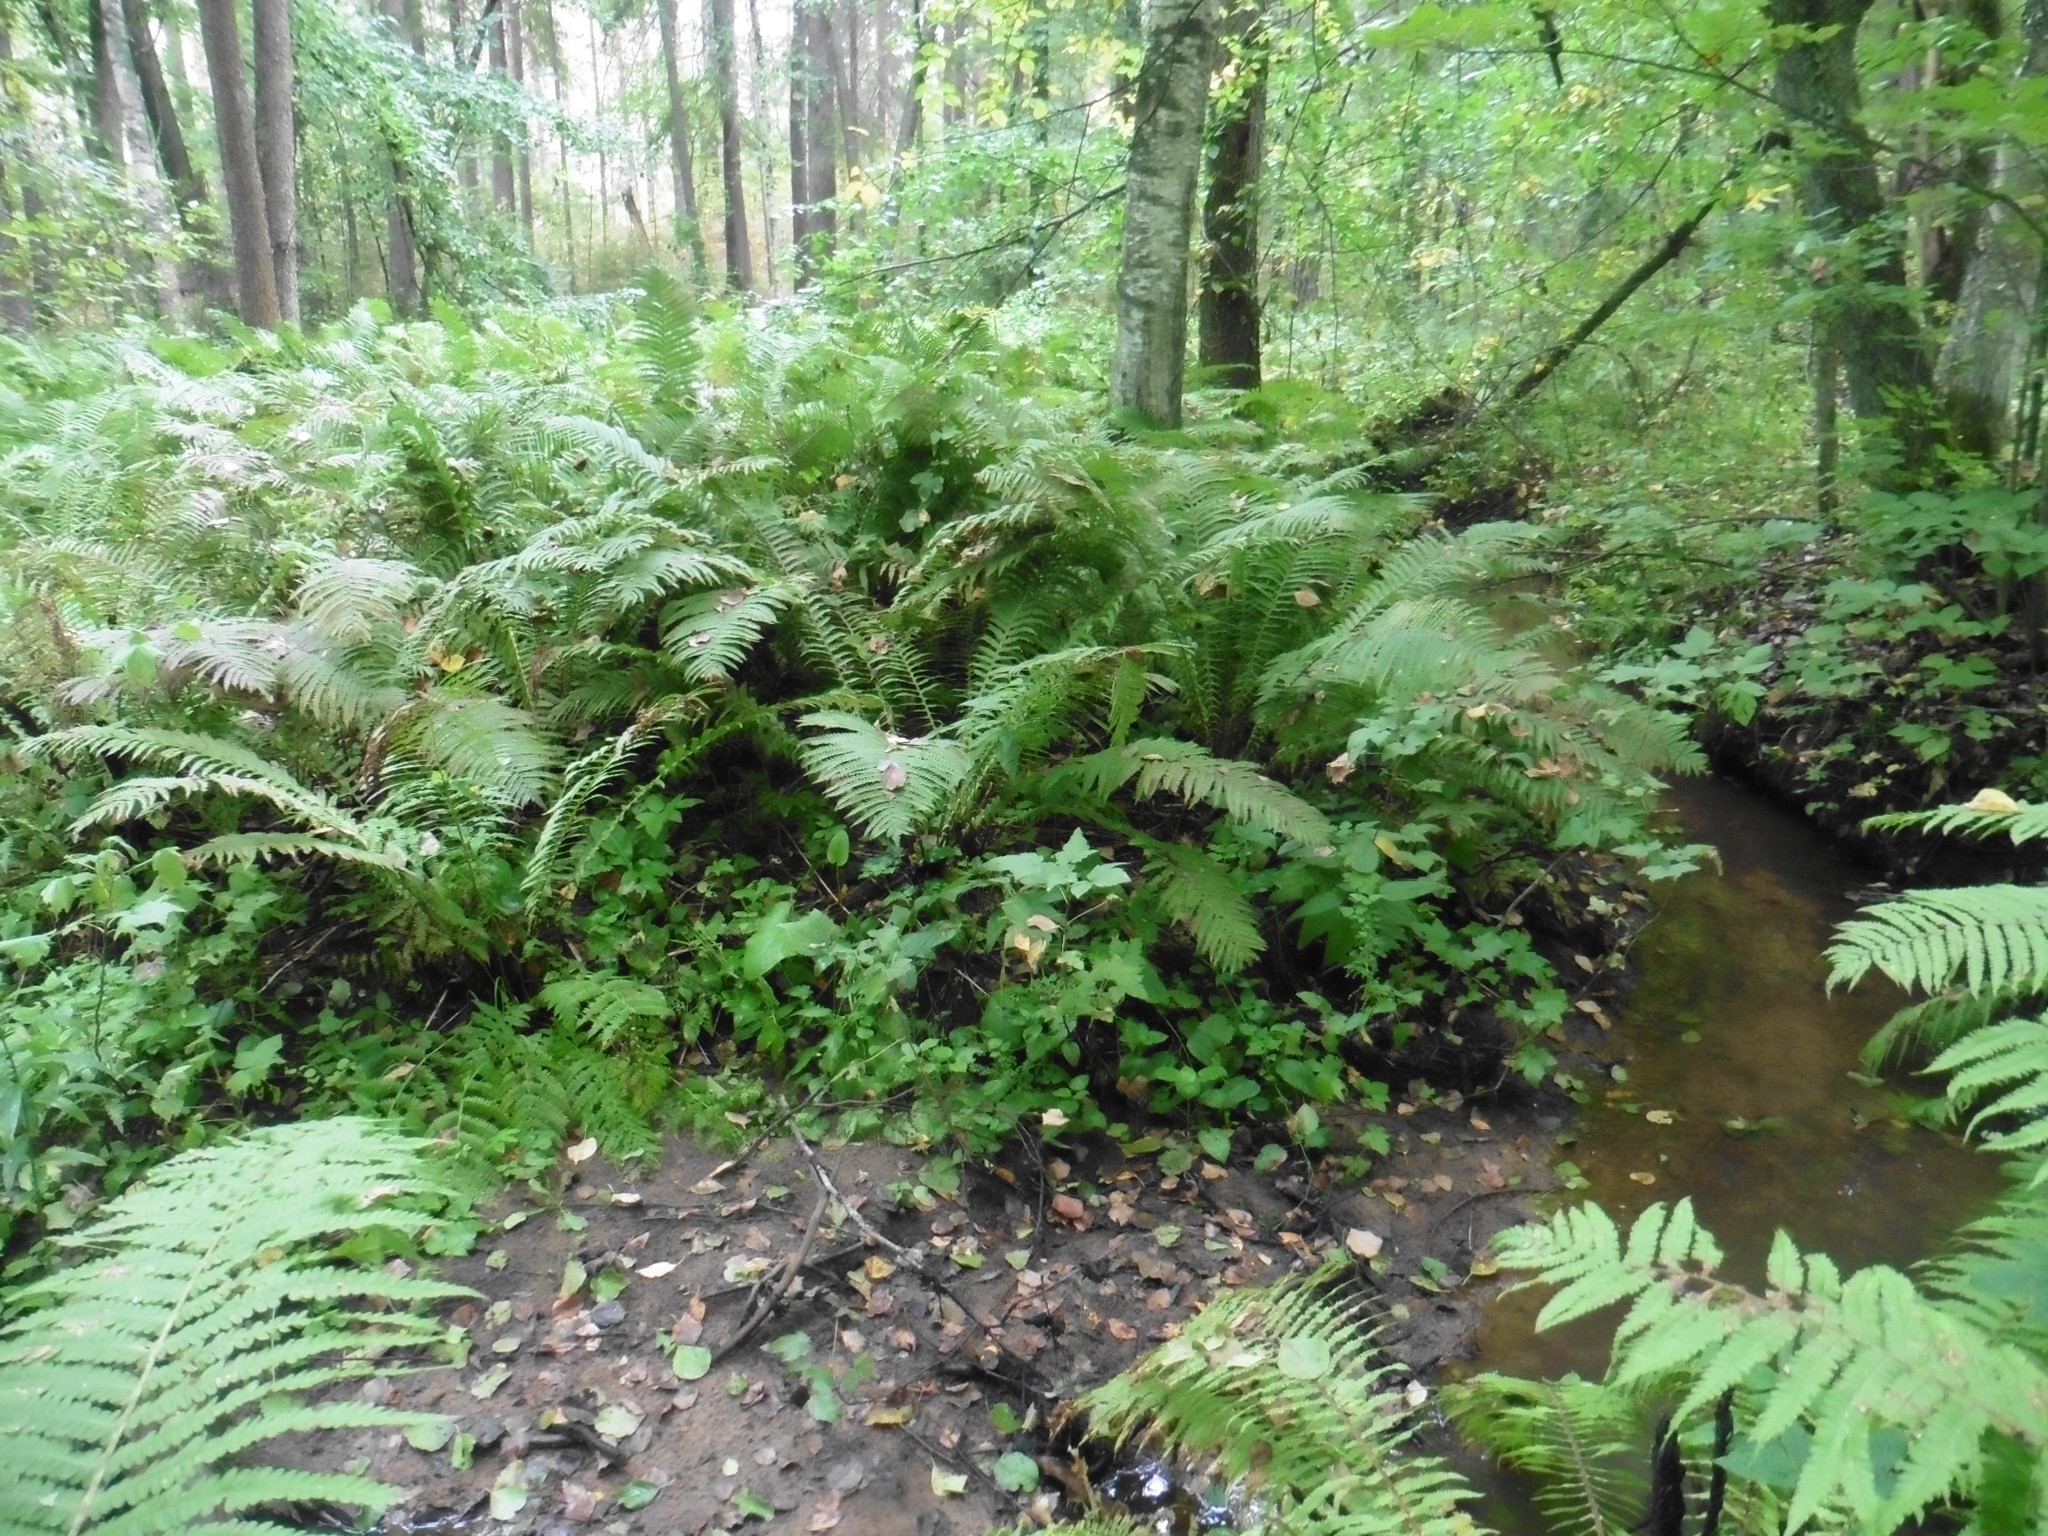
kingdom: Plantae
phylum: Tracheophyta
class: Polypodiopsida
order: Polypodiales
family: Onocleaceae
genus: Matteuccia
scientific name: Matteuccia struthiopteris
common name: Ostrich fern
